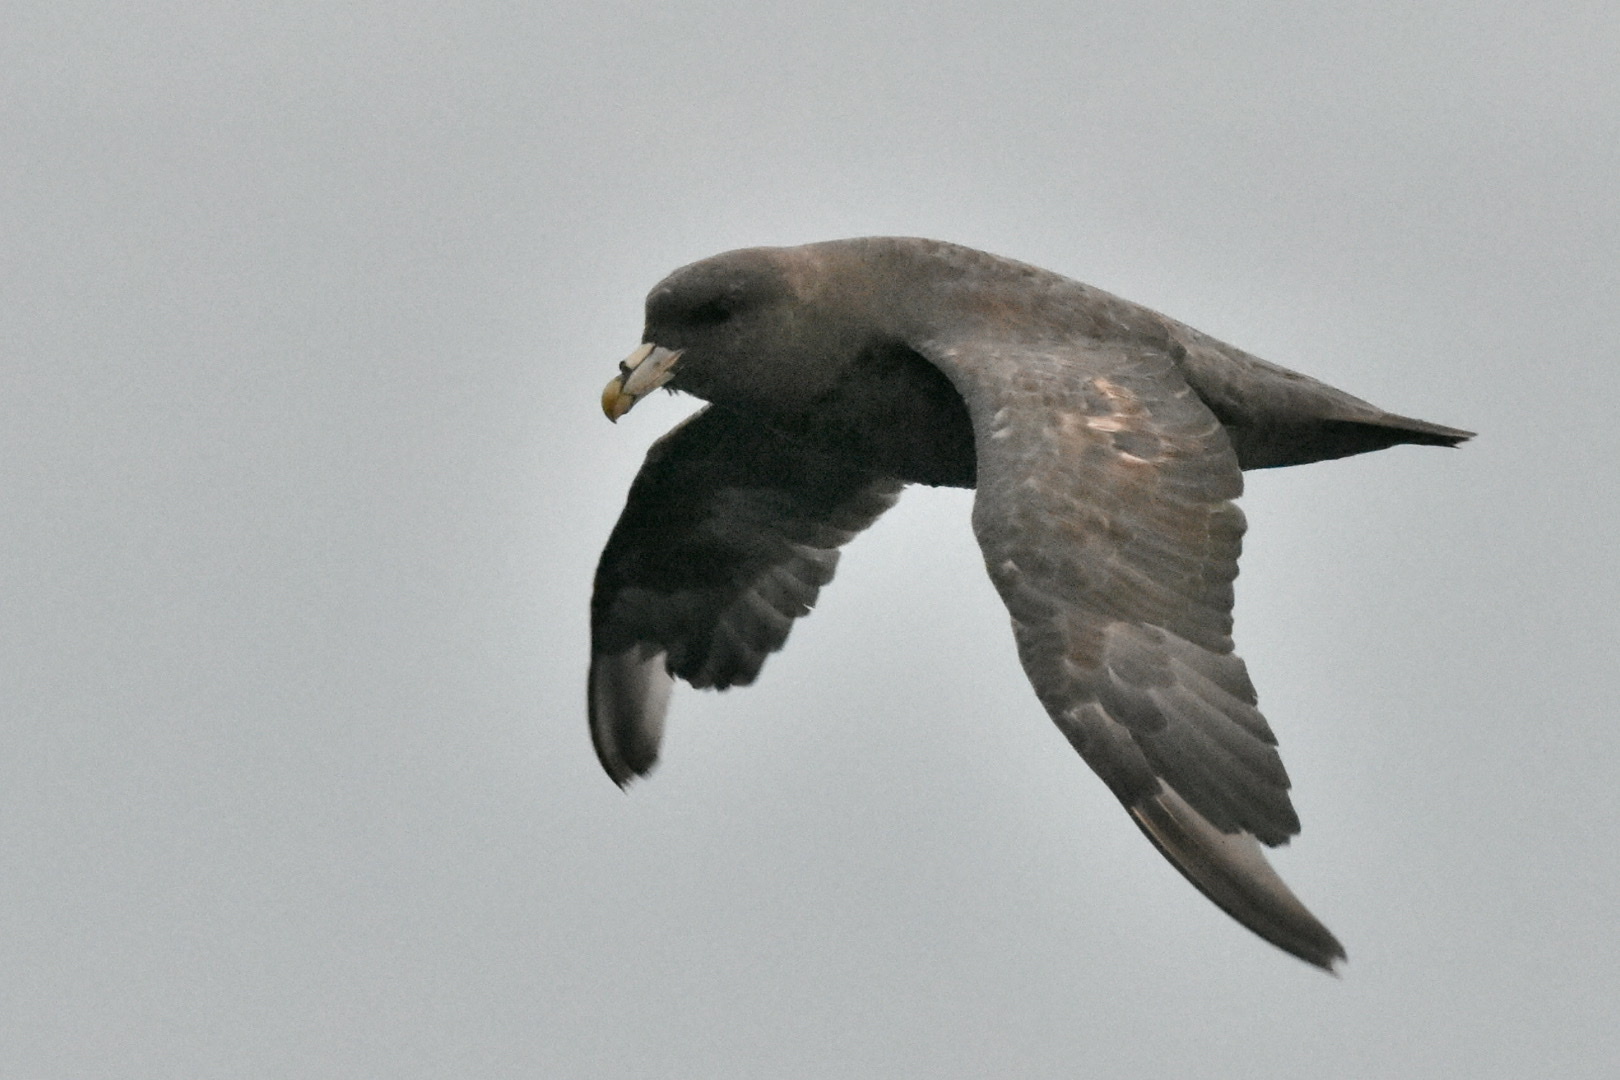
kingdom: Animalia
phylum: Chordata
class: Aves
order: Procellariiformes
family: Procellariidae
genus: Fulmarus
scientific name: Fulmarus glacialis
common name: Northern fulmar
